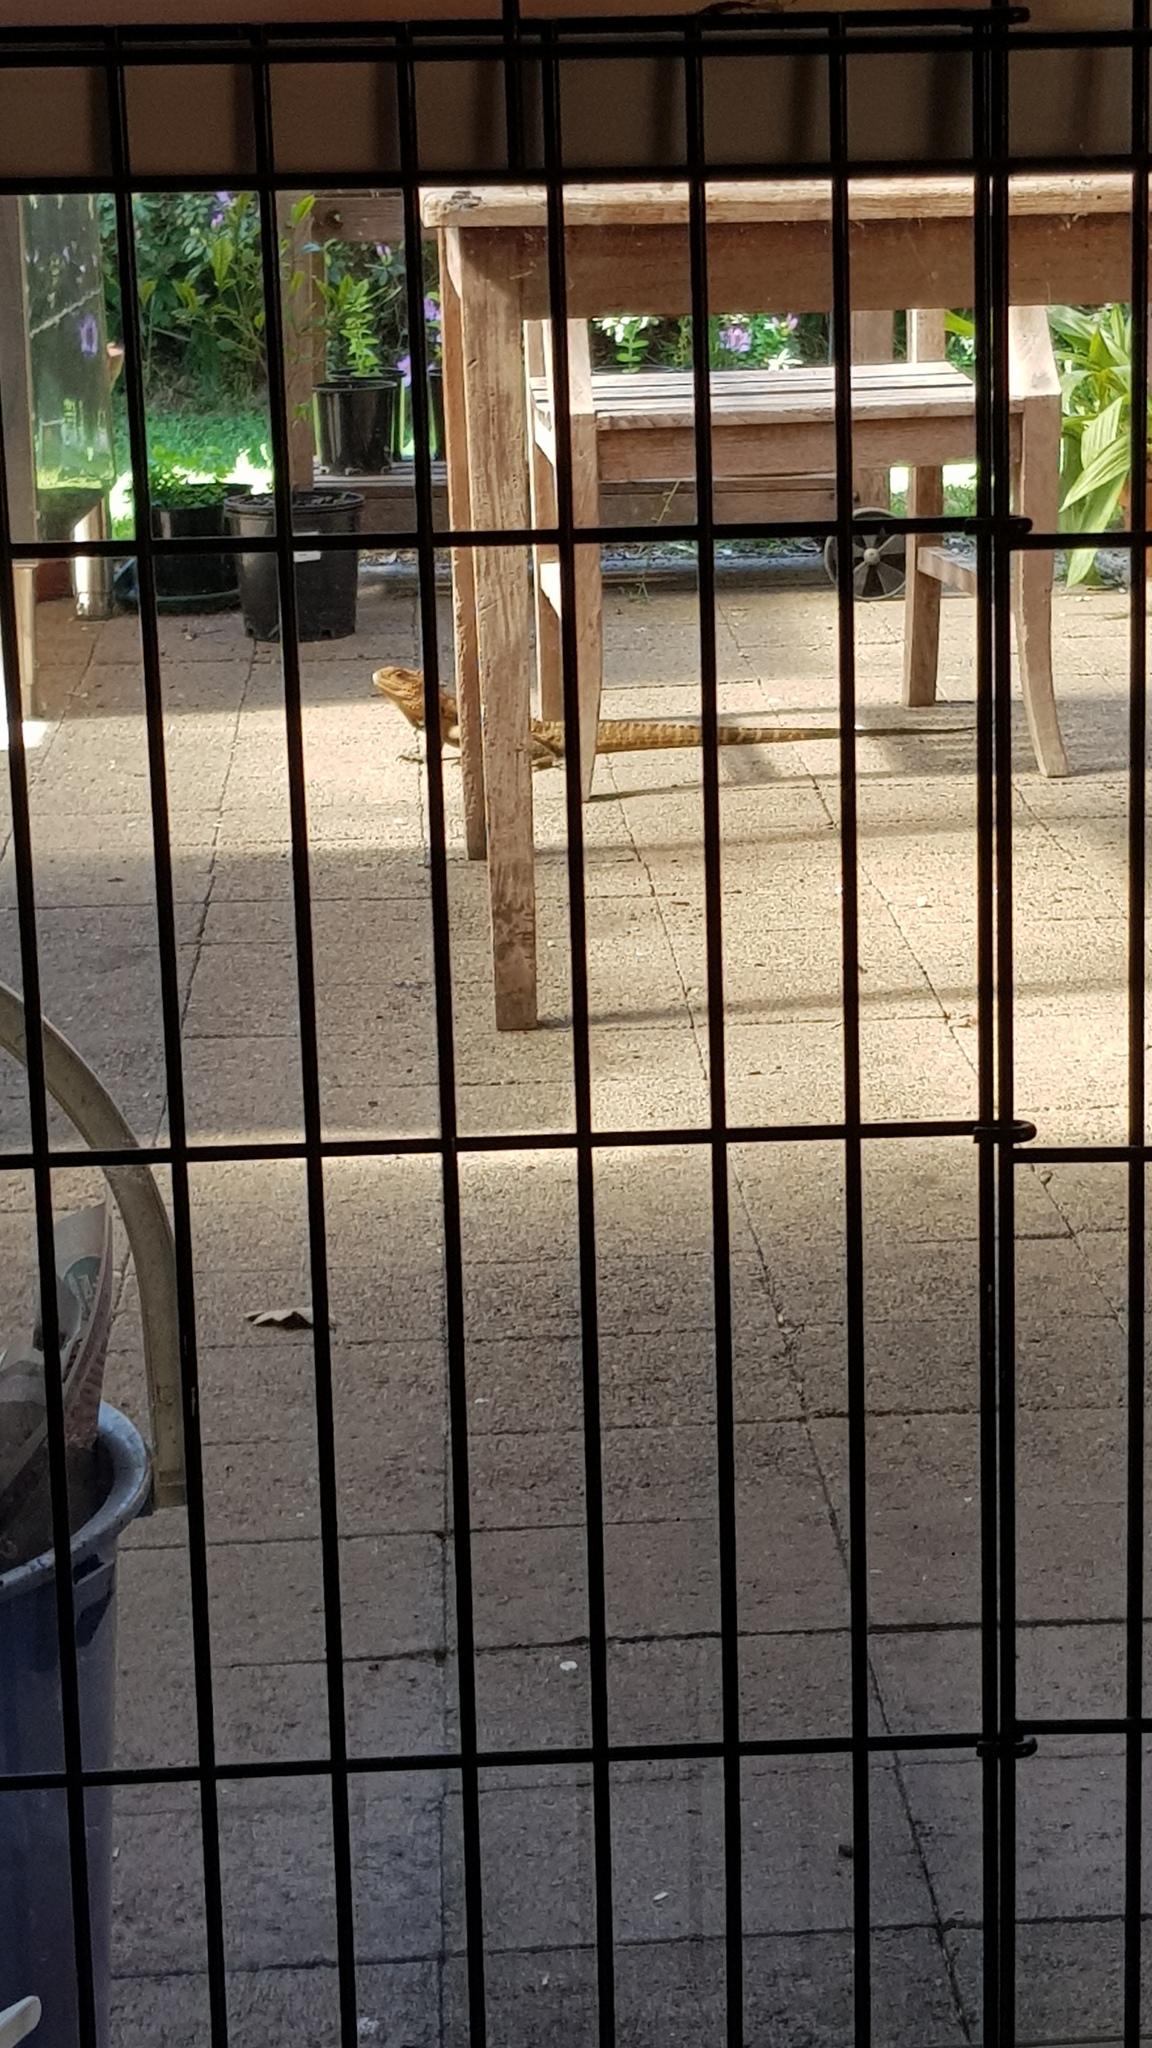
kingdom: Animalia
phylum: Chordata
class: Squamata
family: Agamidae
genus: Intellagama
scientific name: Intellagama lesueurii
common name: Eastern water dragon
